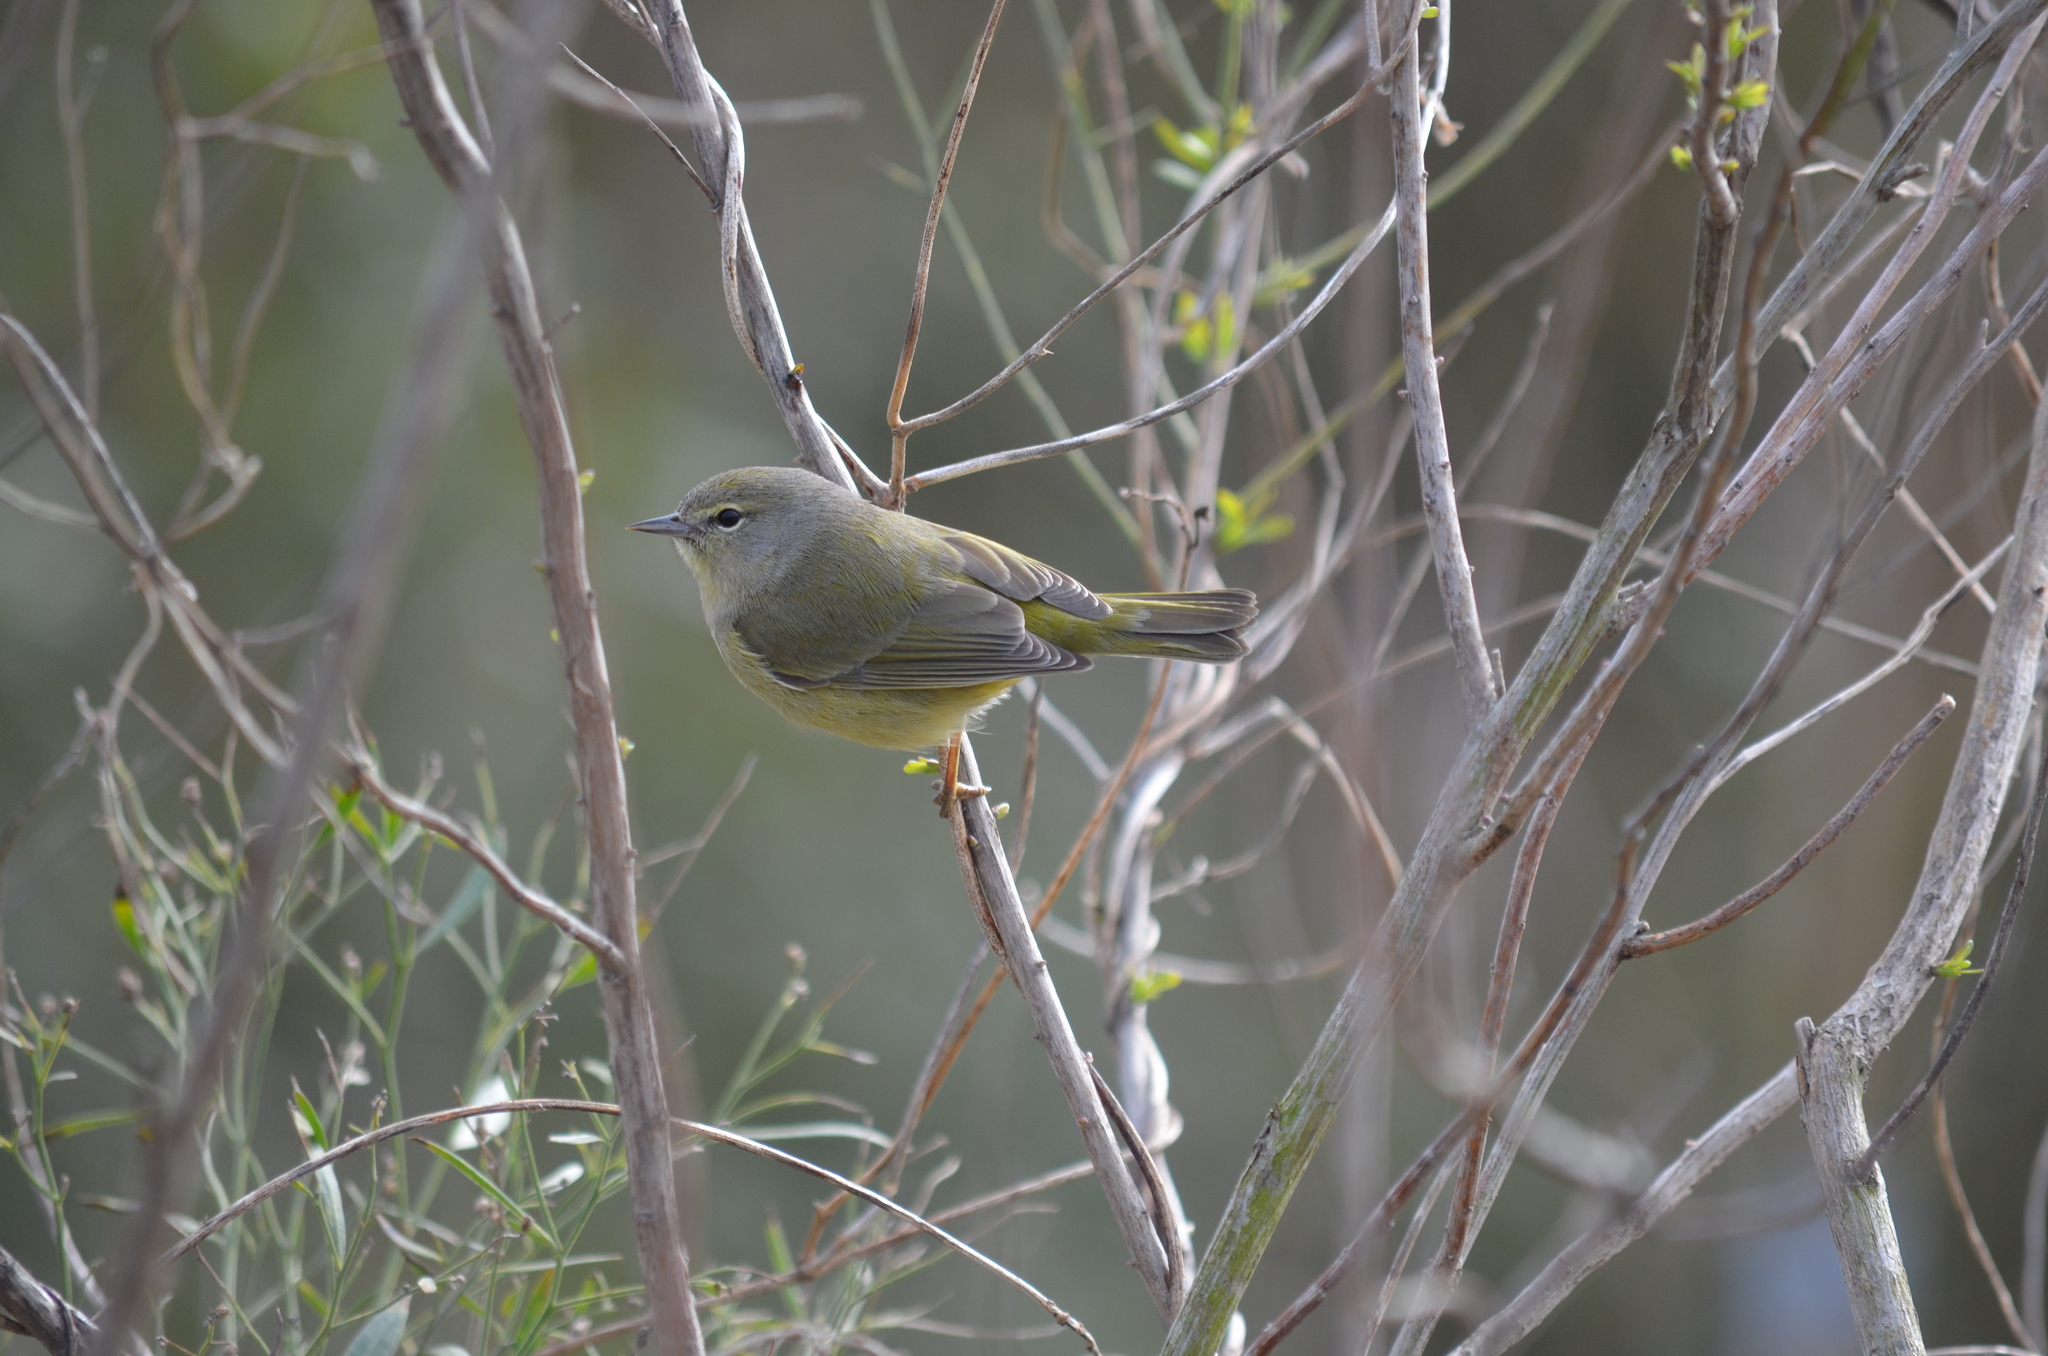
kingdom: Animalia
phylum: Chordata
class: Aves
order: Passeriformes
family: Parulidae
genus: Leiothlypis
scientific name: Leiothlypis celata
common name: Orange-crowned warbler
